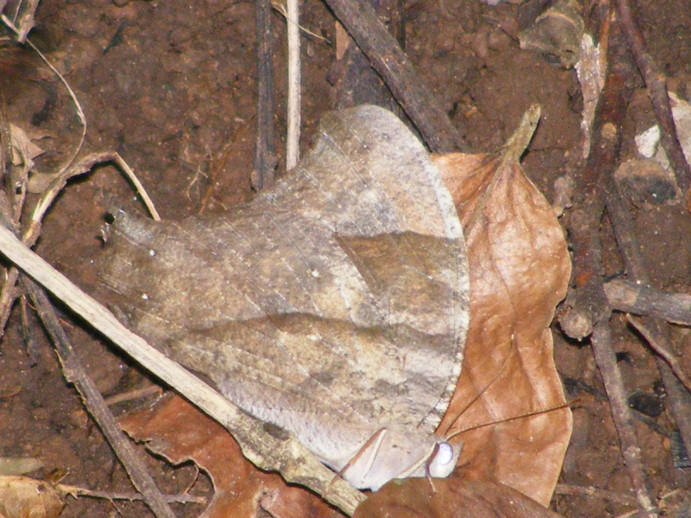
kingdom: Animalia
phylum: Arthropoda
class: Insecta
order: Lepidoptera
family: Nymphalidae
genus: Melanitis
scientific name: Melanitis leda
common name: Twilight brown
